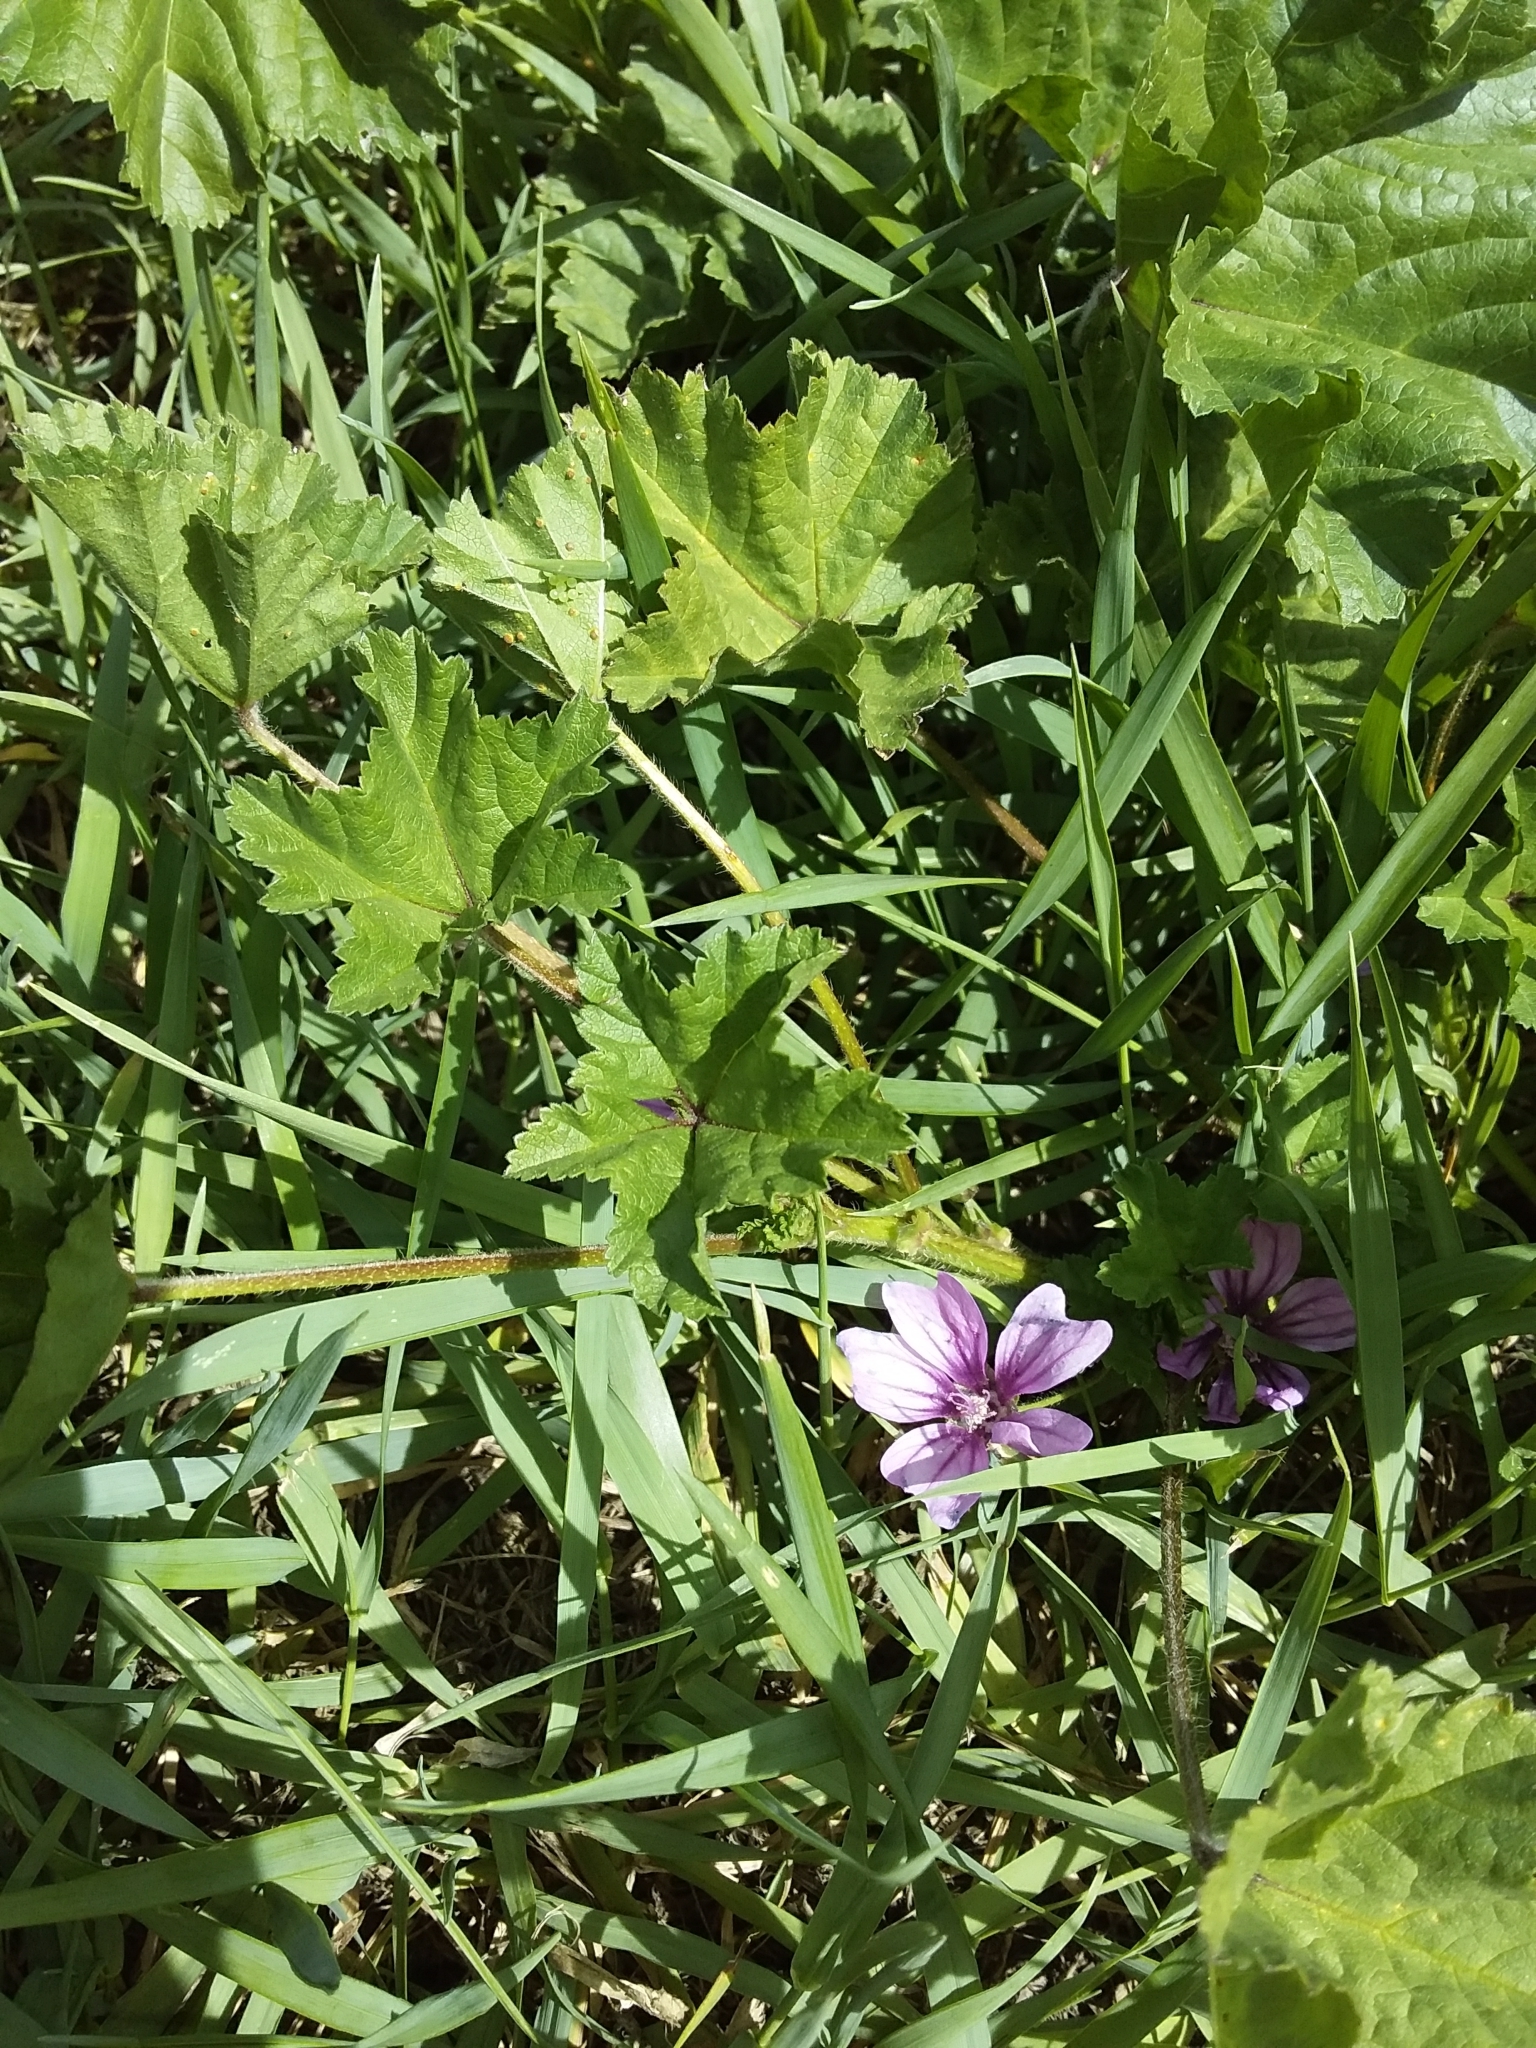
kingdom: Plantae
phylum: Tracheophyta
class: Magnoliopsida
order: Malvales
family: Malvaceae
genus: Malva
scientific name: Malva sylvestris
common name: Common mallow
